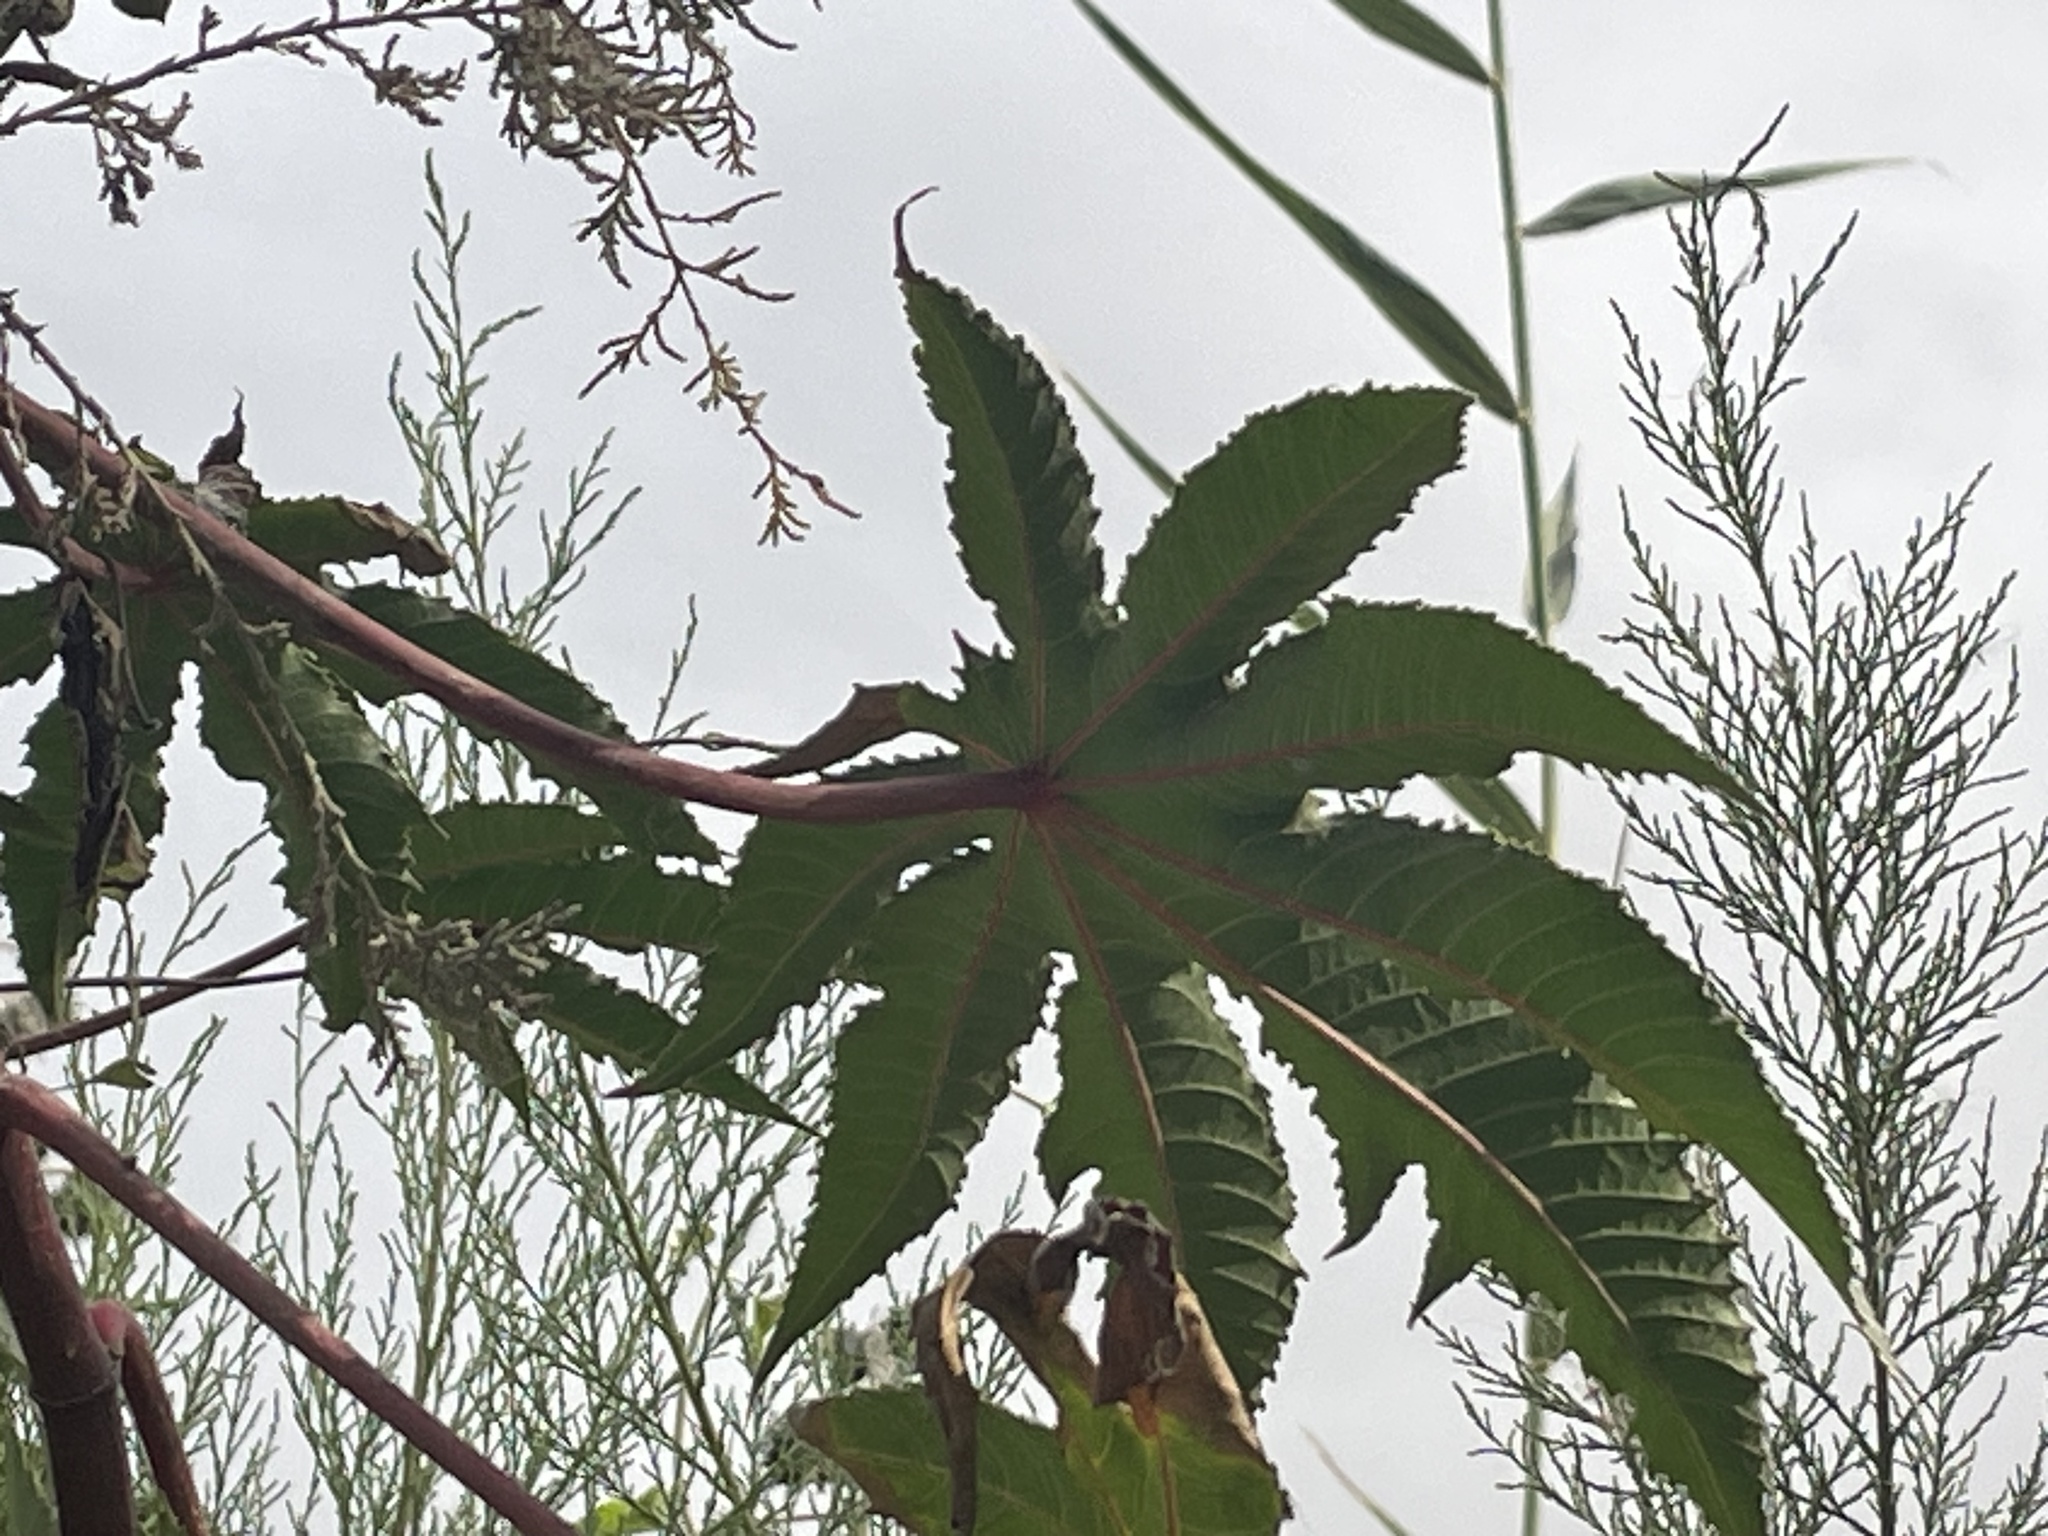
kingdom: Plantae
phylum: Tracheophyta
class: Magnoliopsida
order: Malpighiales
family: Euphorbiaceae
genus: Ricinus
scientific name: Ricinus communis
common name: Castor-oil-plant
